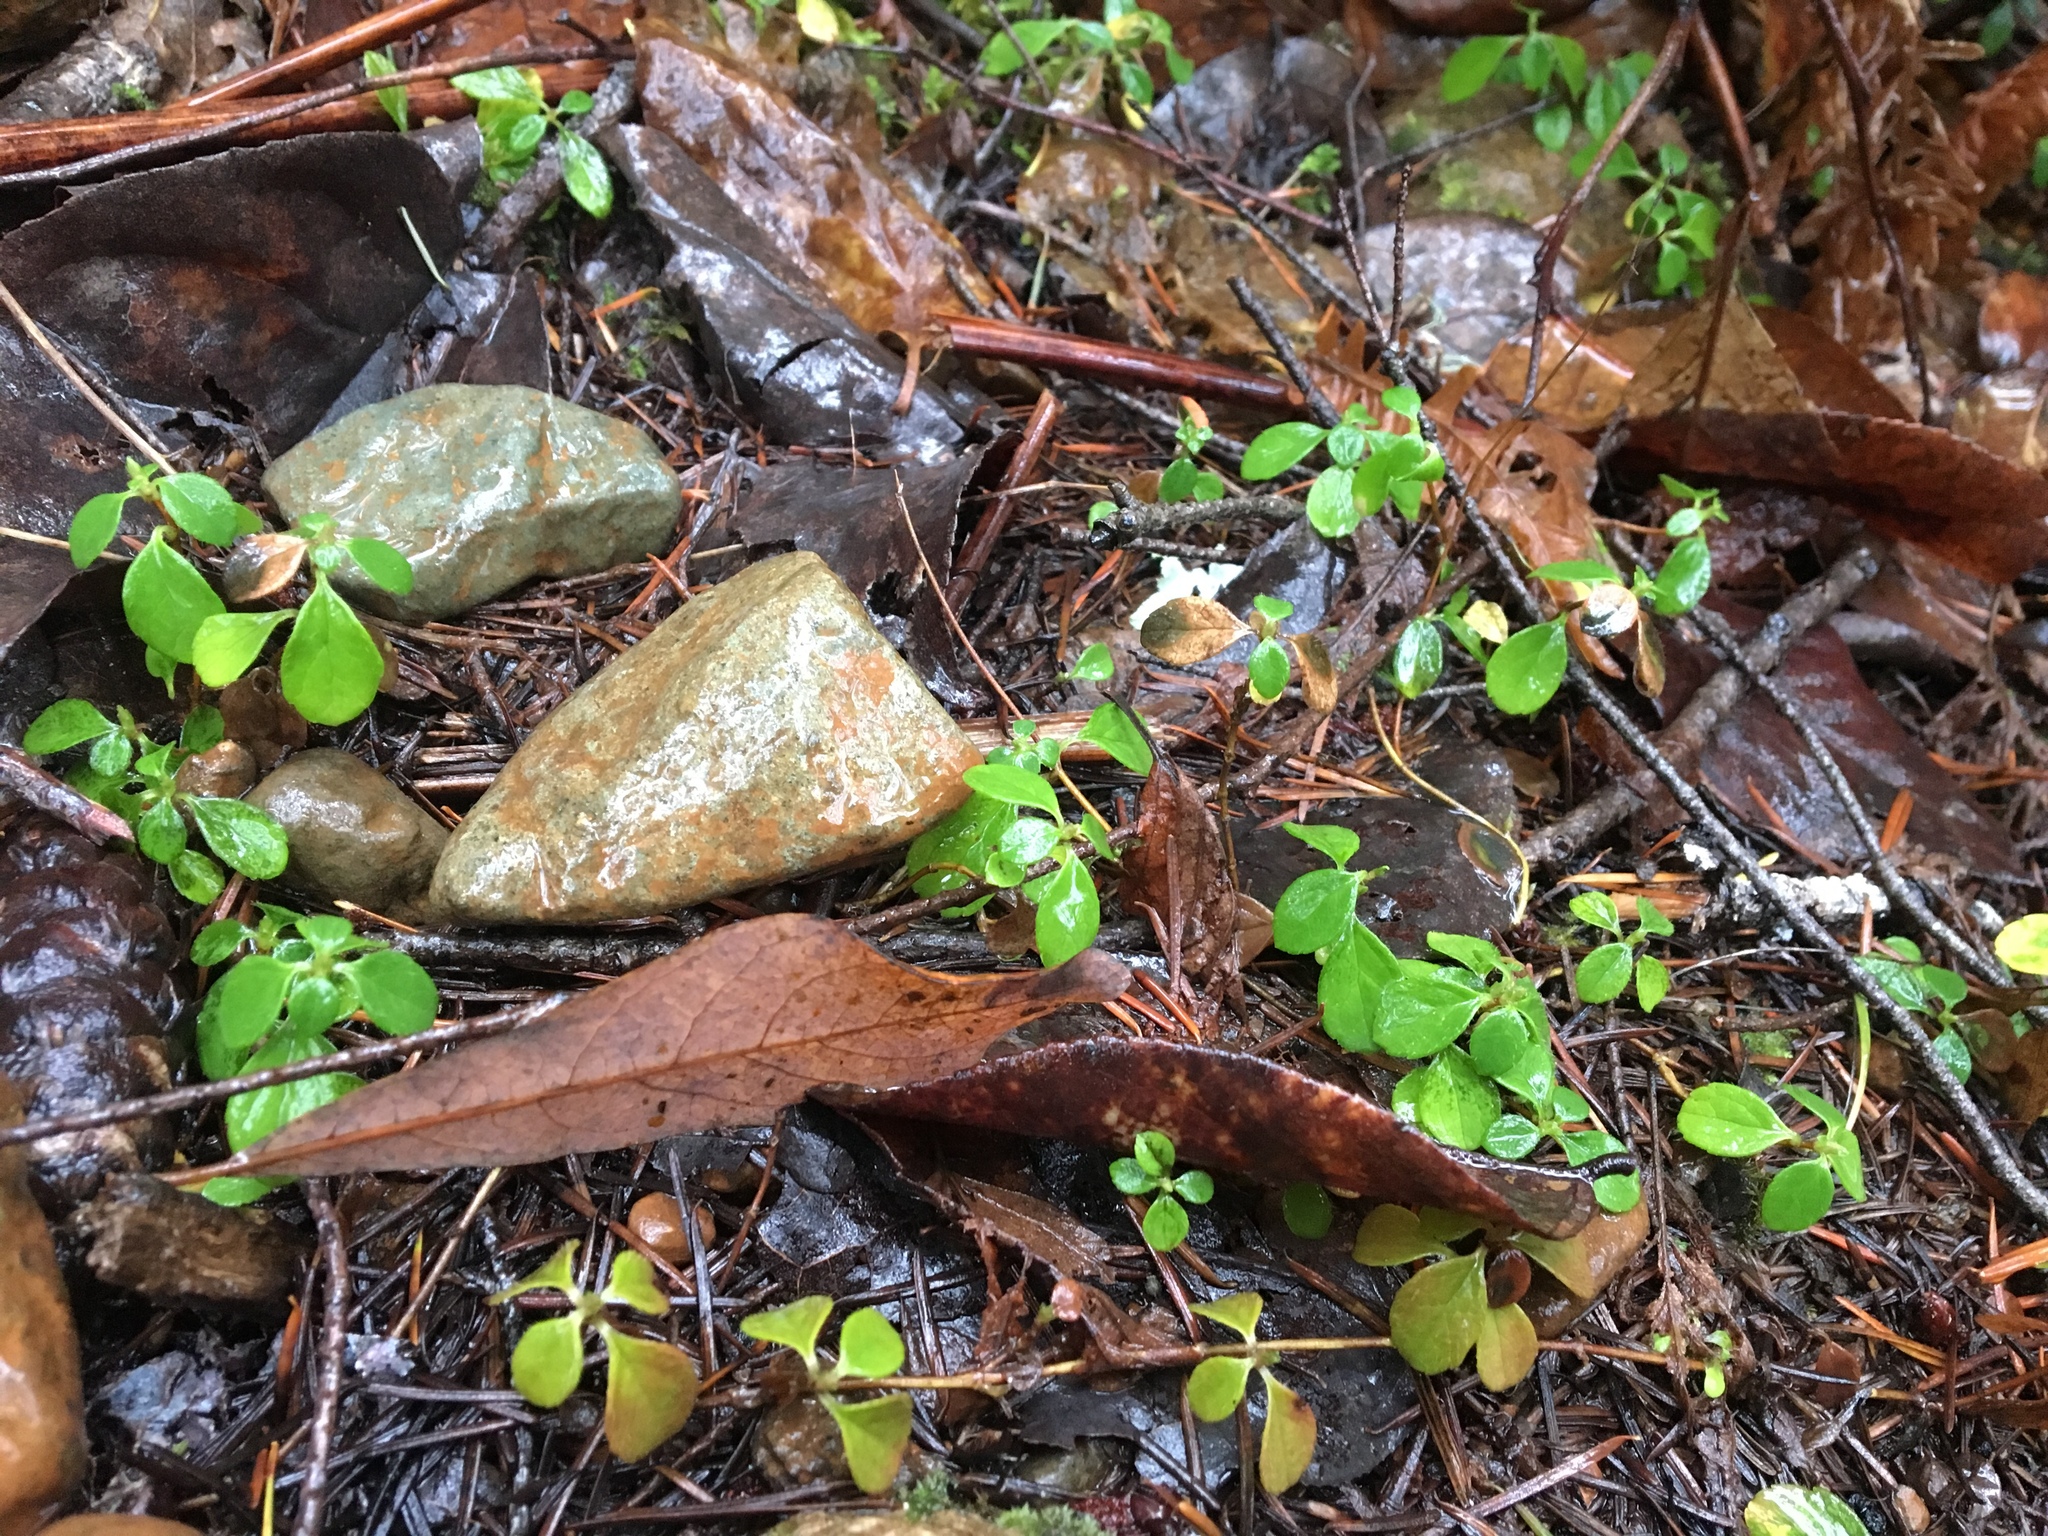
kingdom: Plantae
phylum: Tracheophyta
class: Magnoliopsida
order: Dipsacales
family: Caprifoliaceae
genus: Linnaea
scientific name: Linnaea borealis
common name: Twinflower
